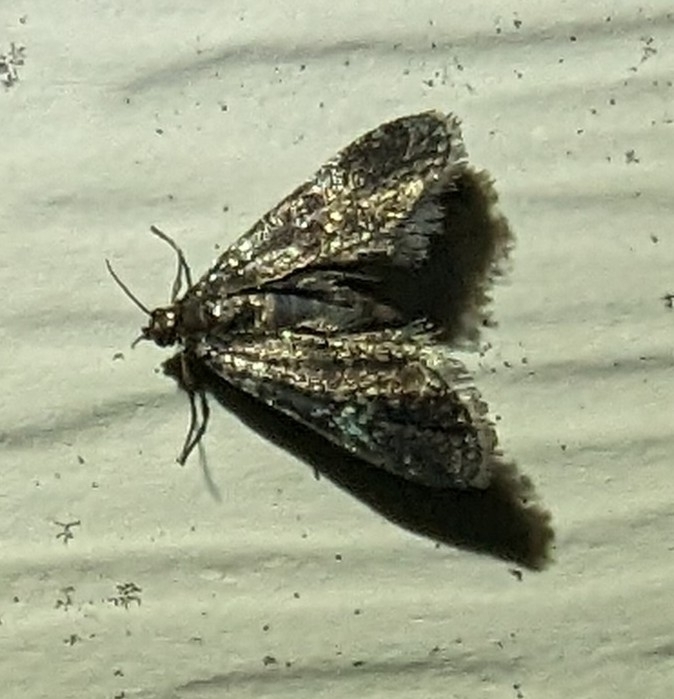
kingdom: Animalia
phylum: Arthropoda
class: Insecta
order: Lepidoptera
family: Crambidae
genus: Elophila
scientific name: Elophila tinealis
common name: Black duckweed moth
